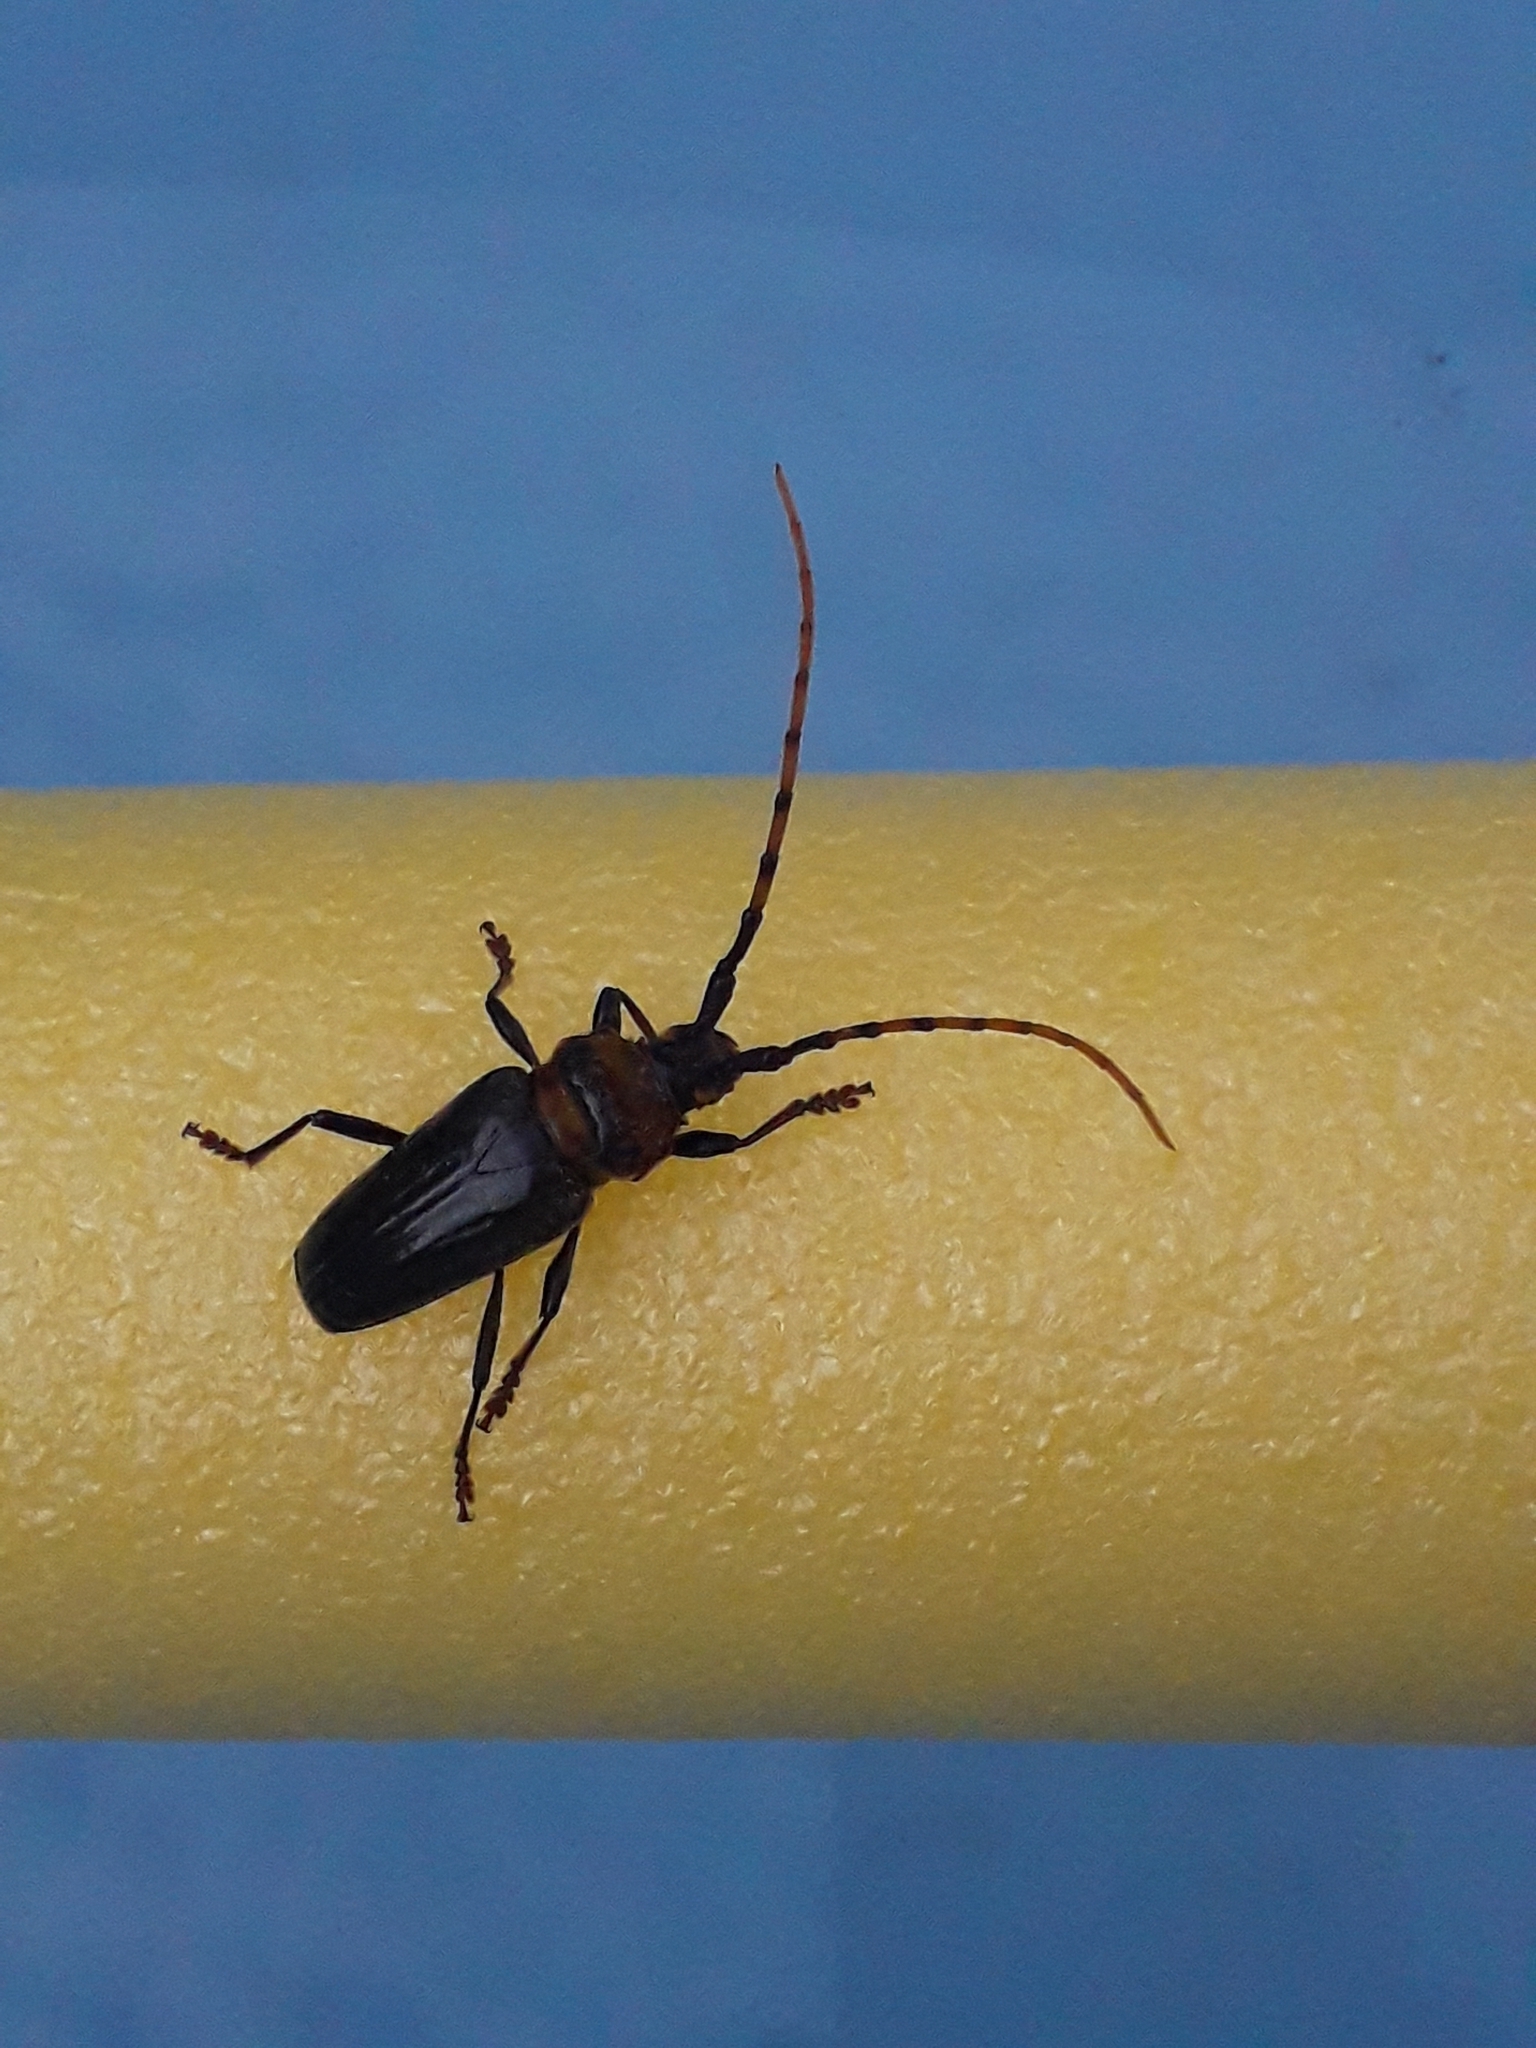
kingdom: Animalia
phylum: Arthropoda
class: Insecta
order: Coleoptera
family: Cerambycidae
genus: Retrachydes
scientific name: Retrachydes thoracicus
